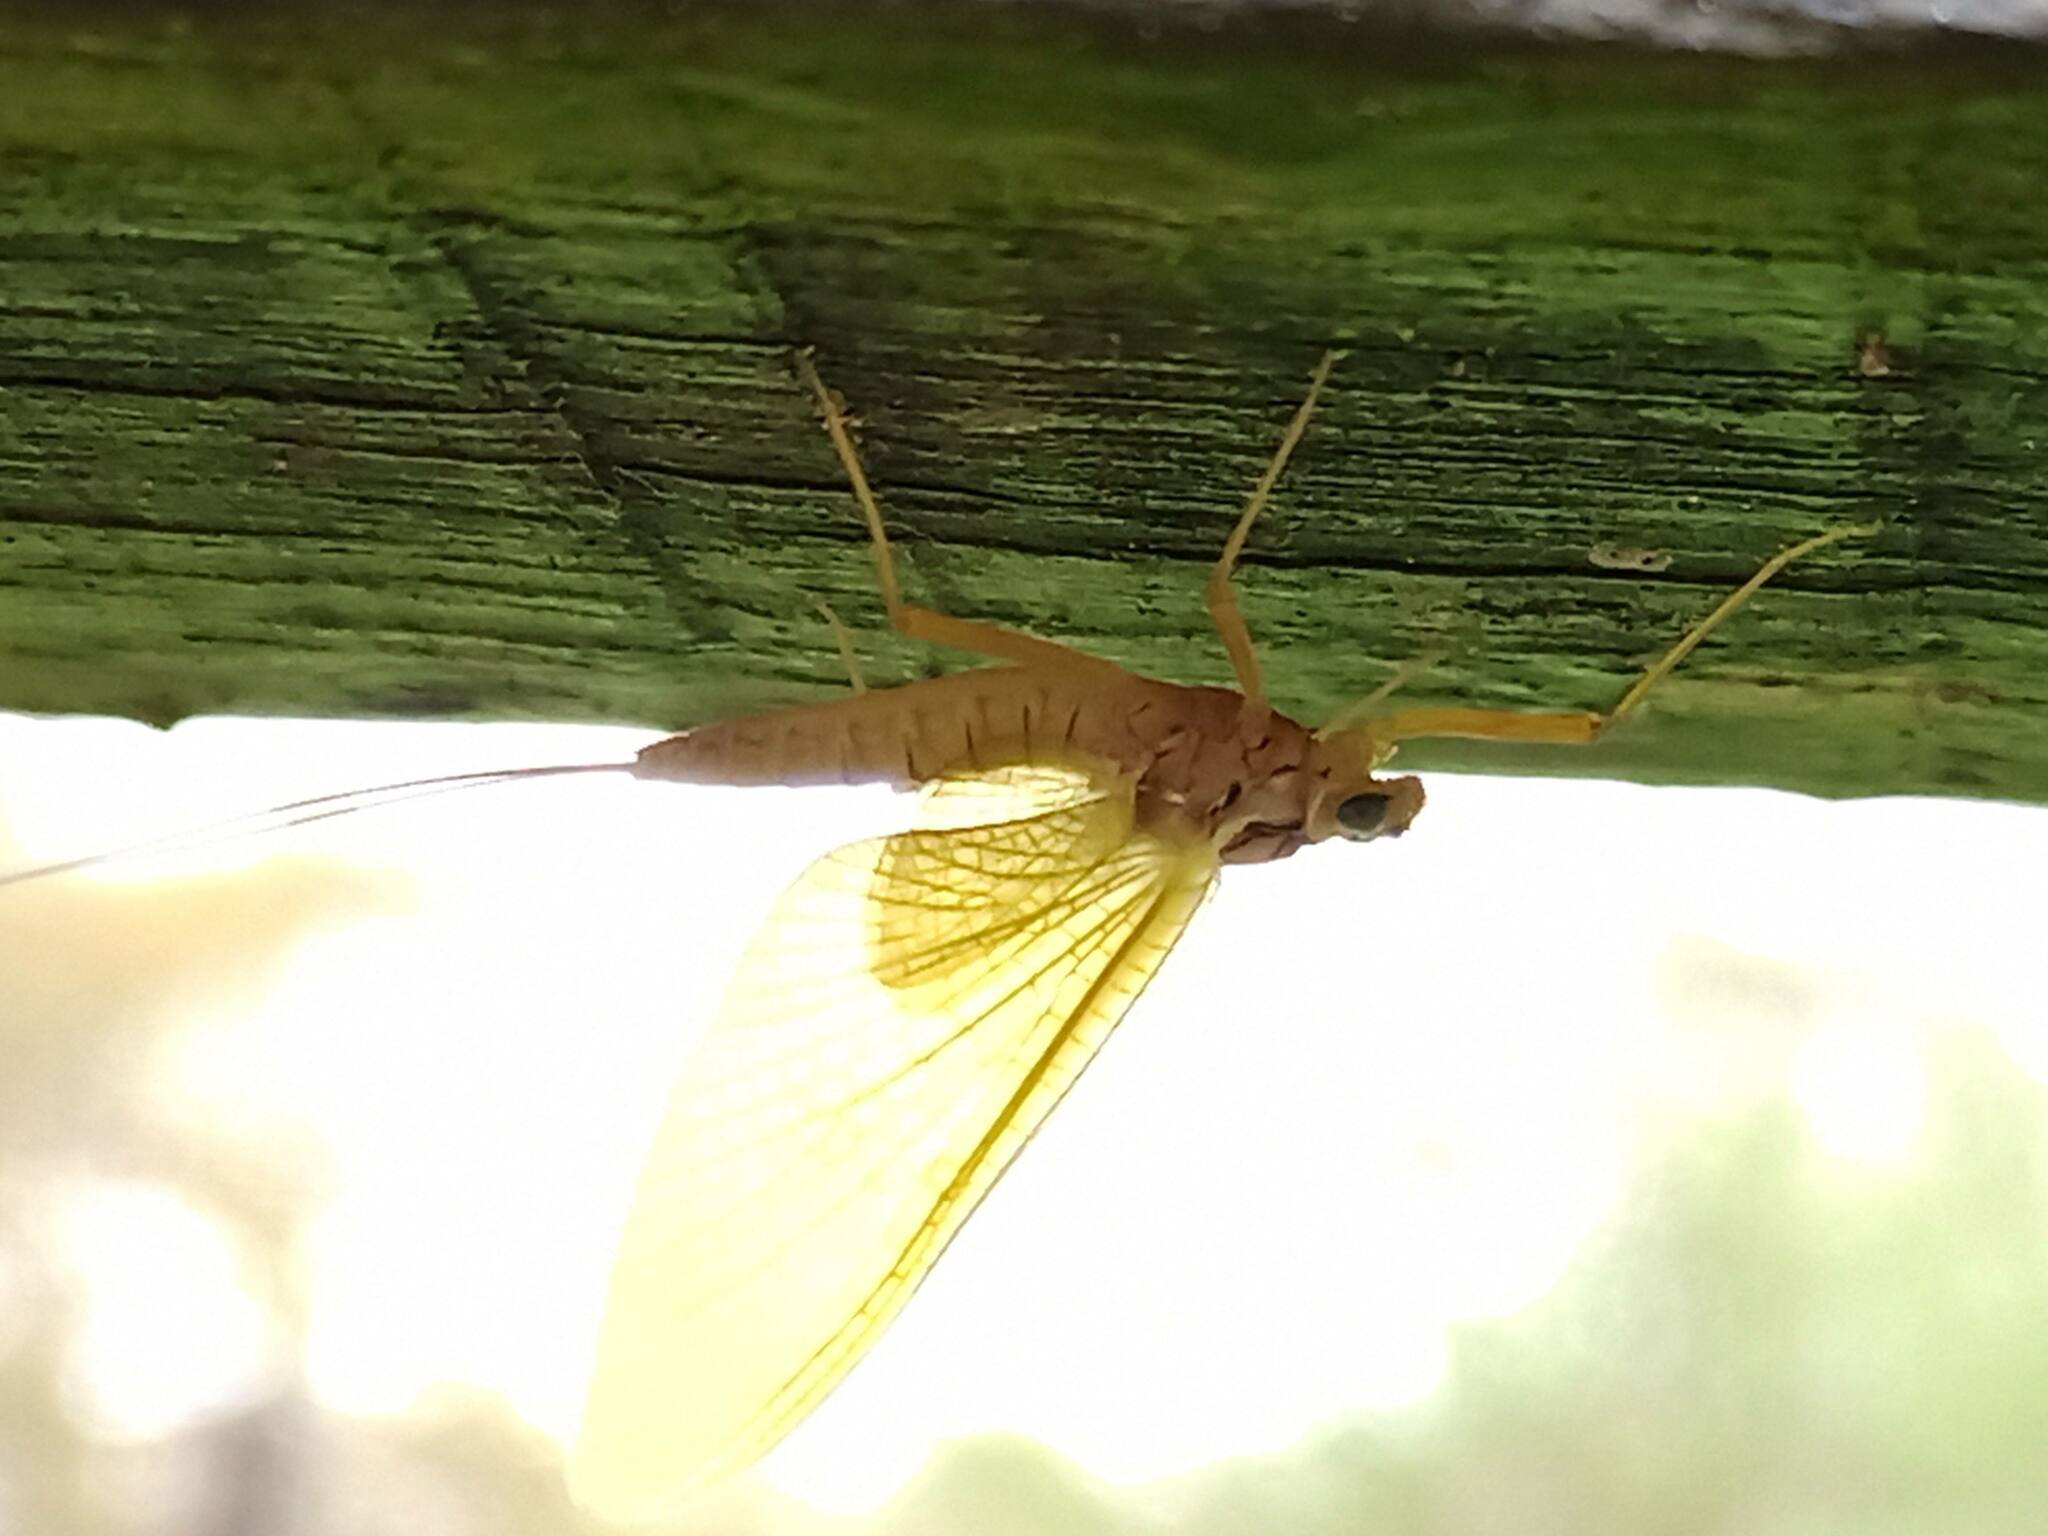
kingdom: Animalia
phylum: Arthropoda
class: Insecta
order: Ephemeroptera
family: Heptageniidae
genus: Heptagenia
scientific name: Heptagenia sulphurea
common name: Yellow may dun
